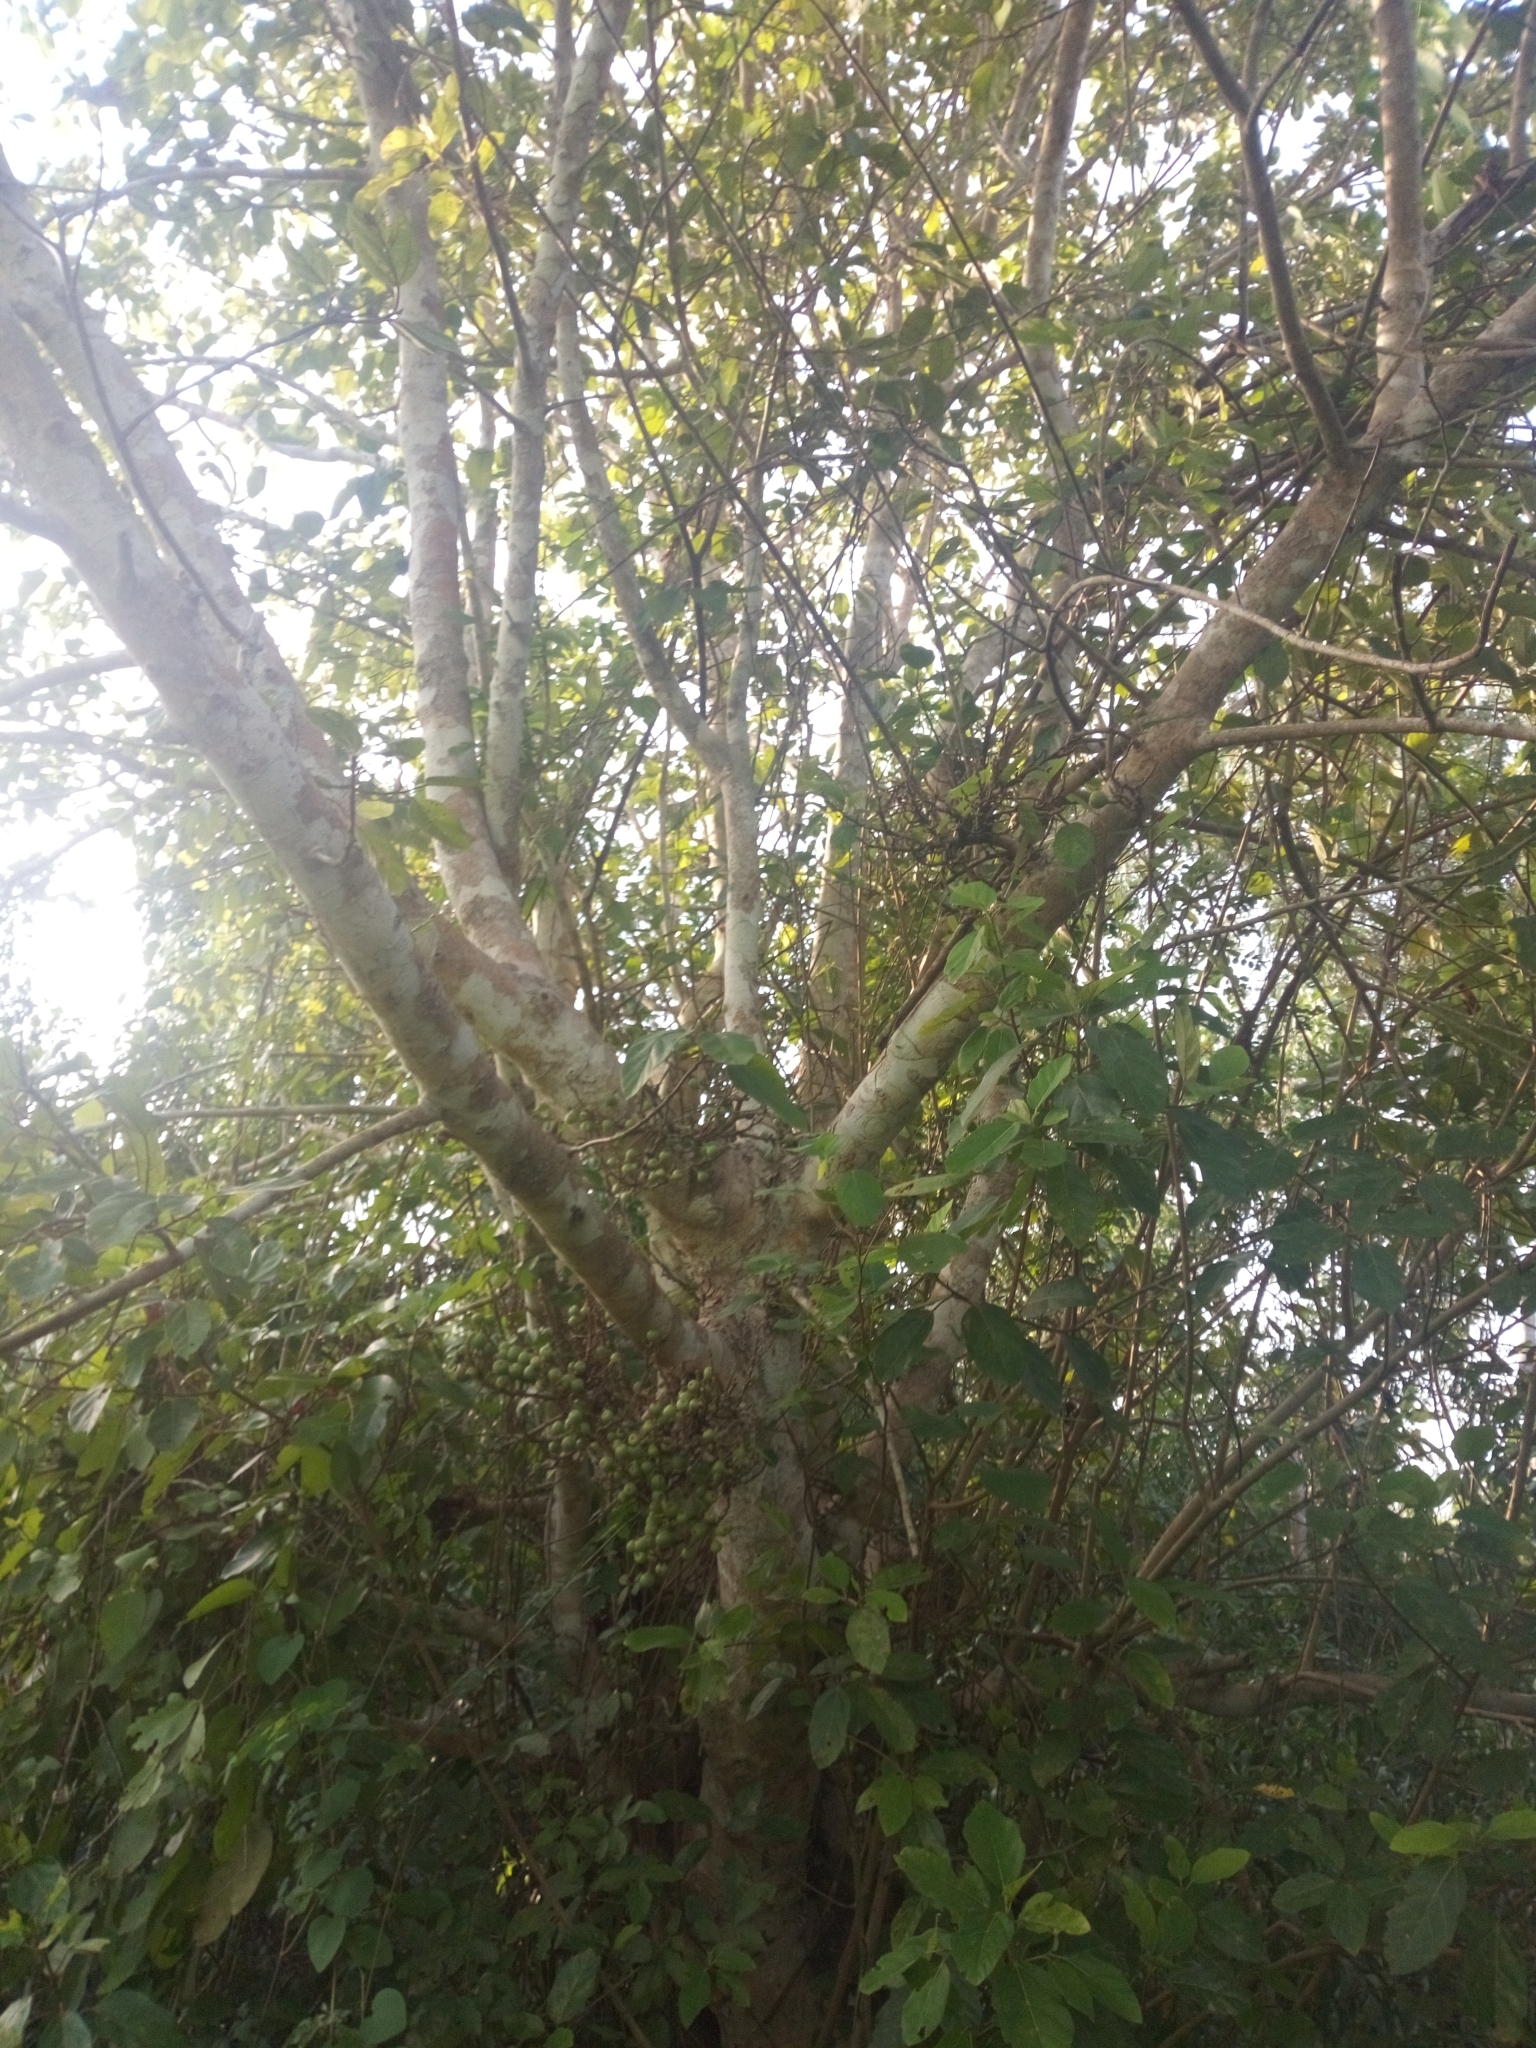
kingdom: Plantae
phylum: Tracheophyta
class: Magnoliopsida
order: Rosales
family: Moraceae
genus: Ficus
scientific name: Ficus sur
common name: Cape fig
